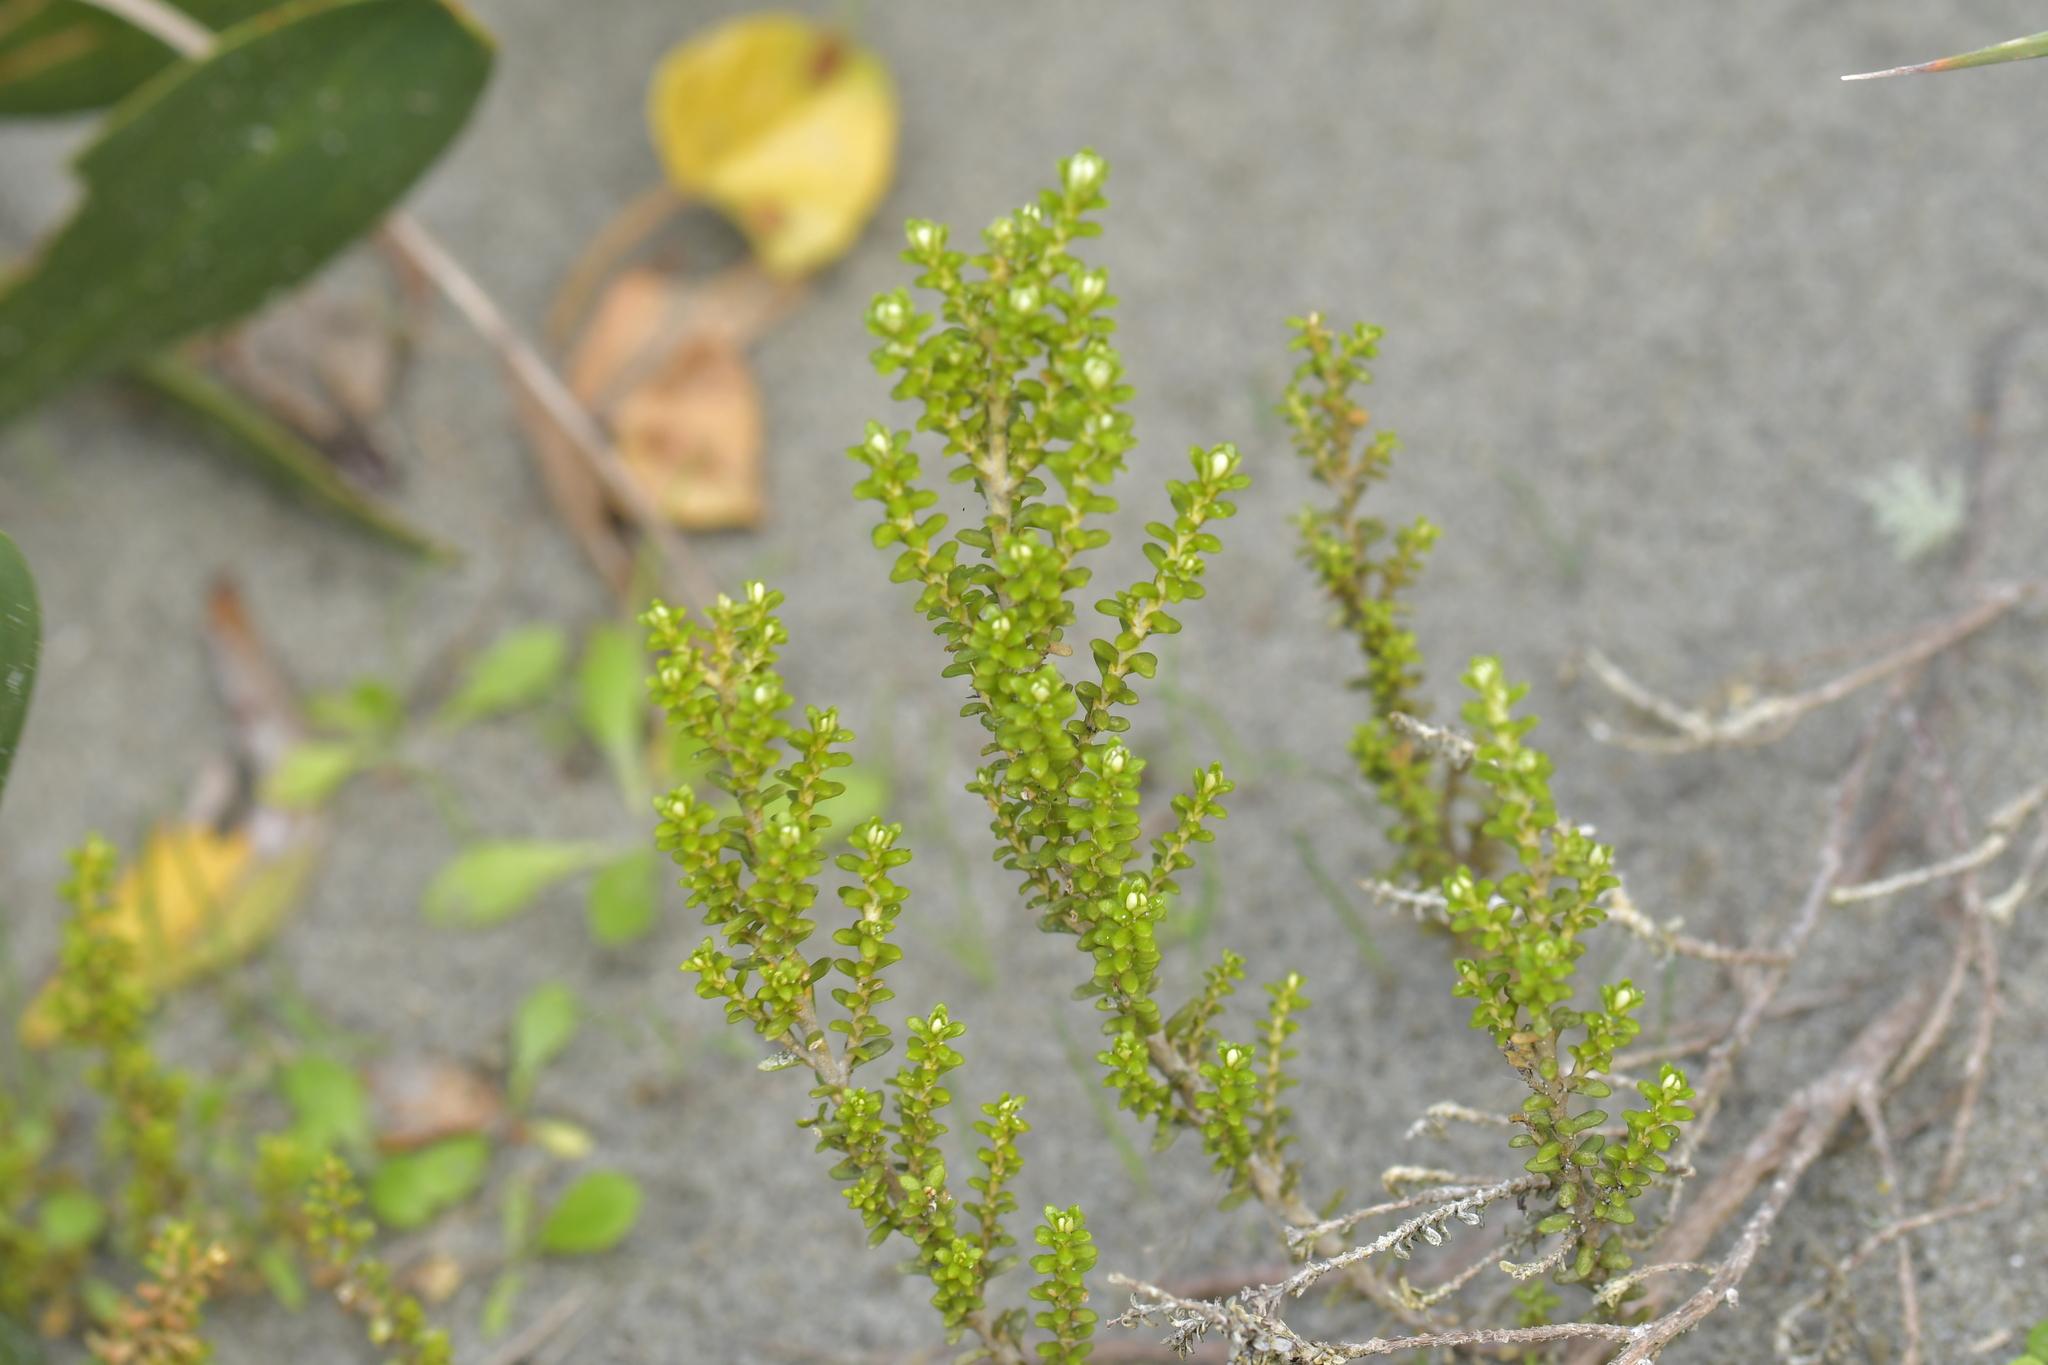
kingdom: Plantae
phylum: Tracheophyta
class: Magnoliopsida
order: Asterales
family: Asteraceae
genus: Ozothamnus
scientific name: Ozothamnus leptophyllus
